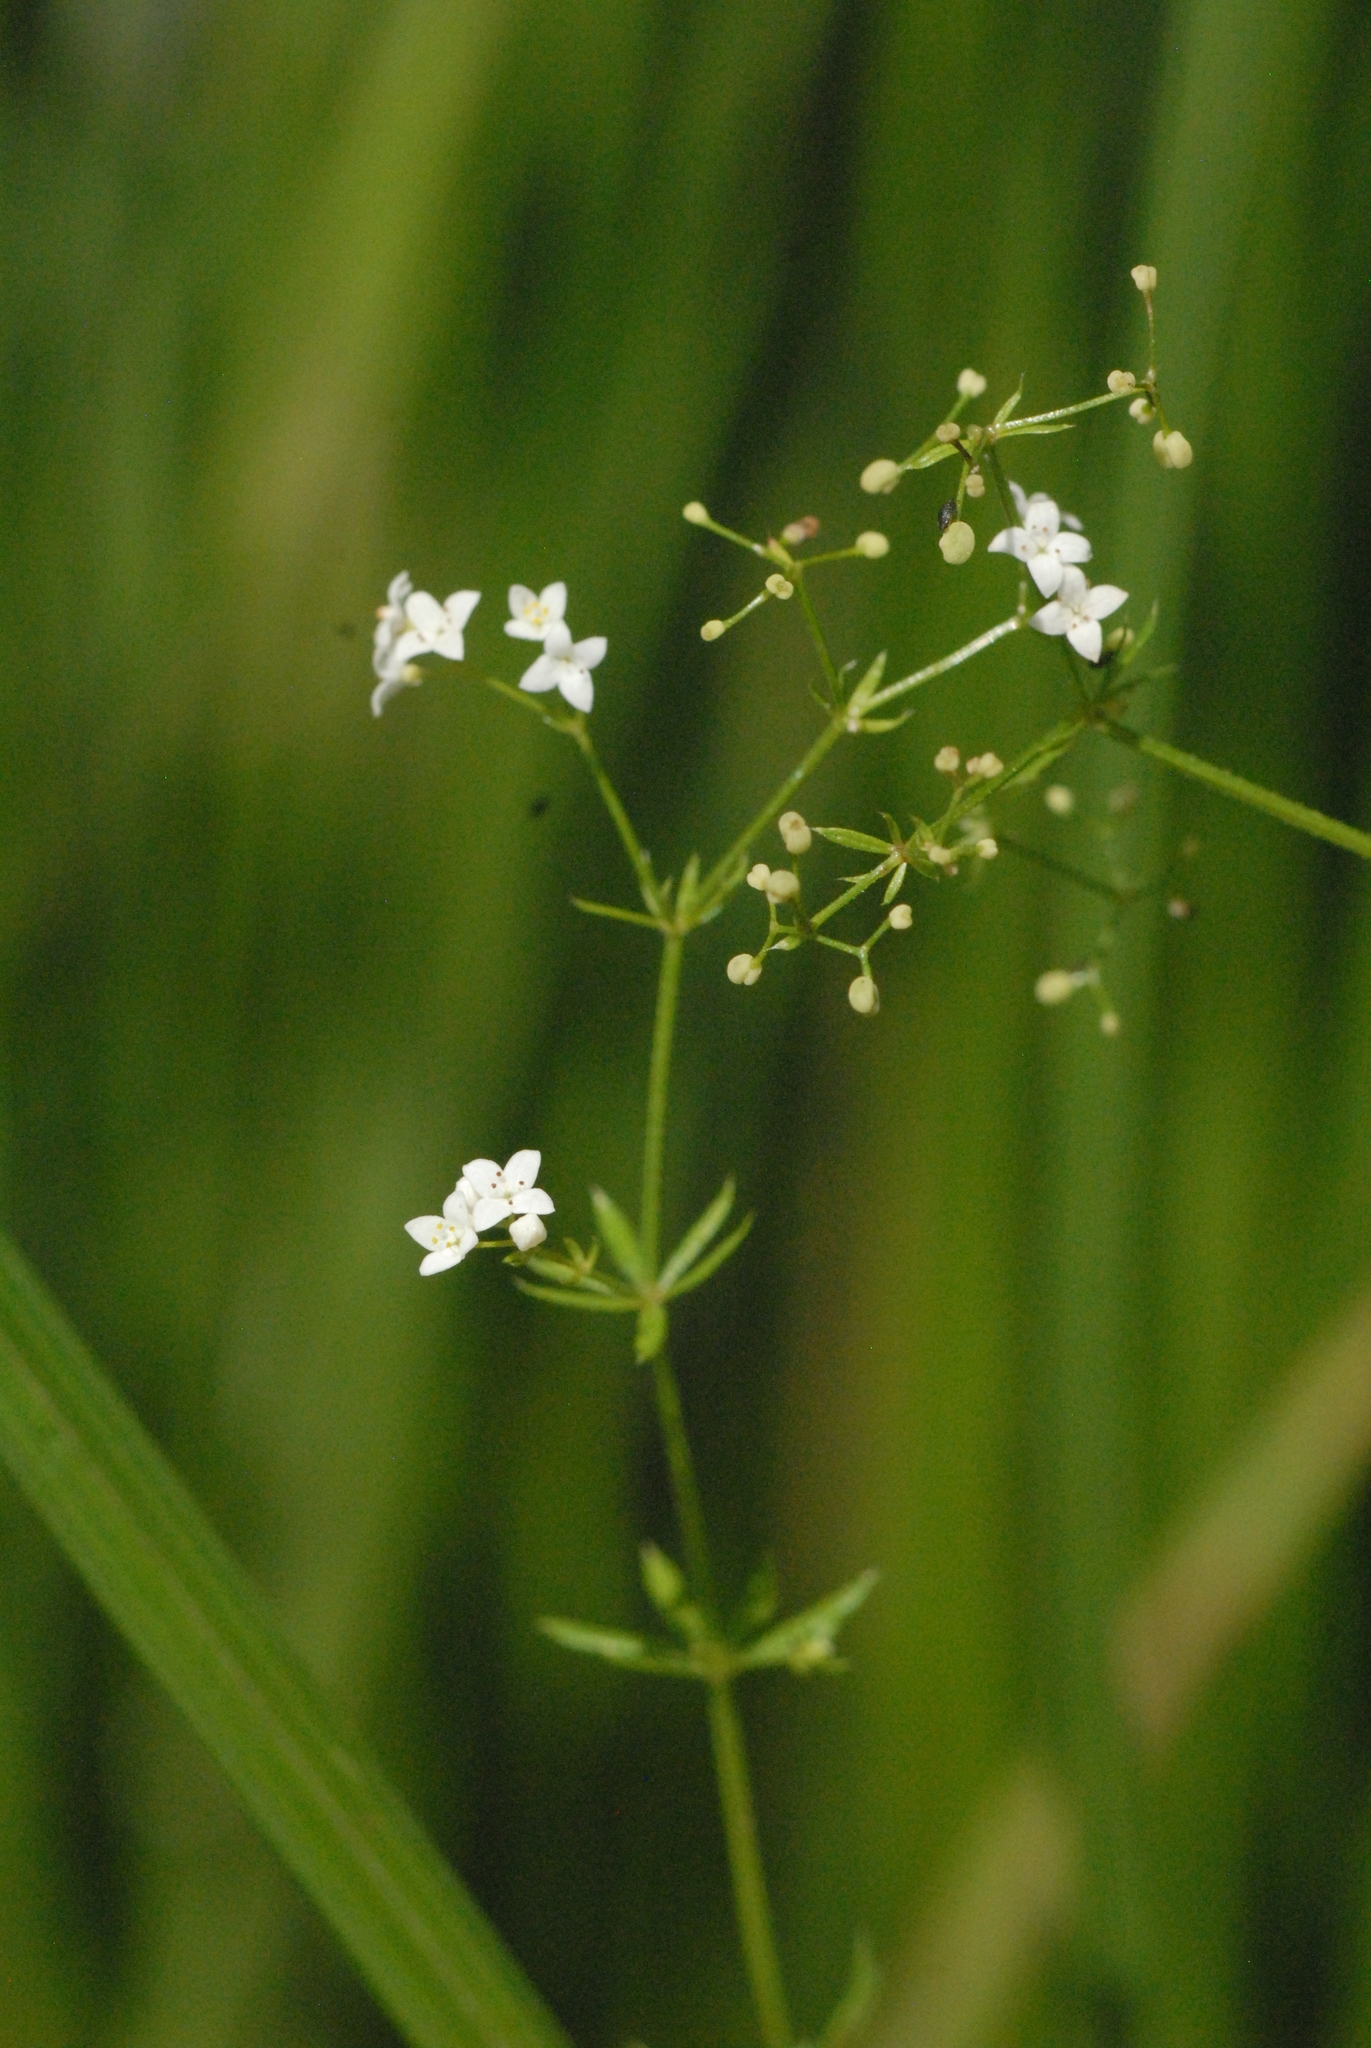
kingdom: Plantae
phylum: Tracheophyta
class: Magnoliopsida
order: Gentianales
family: Rubiaceae
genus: Galium
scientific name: Galium uliginosum
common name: Fen bedstraw
